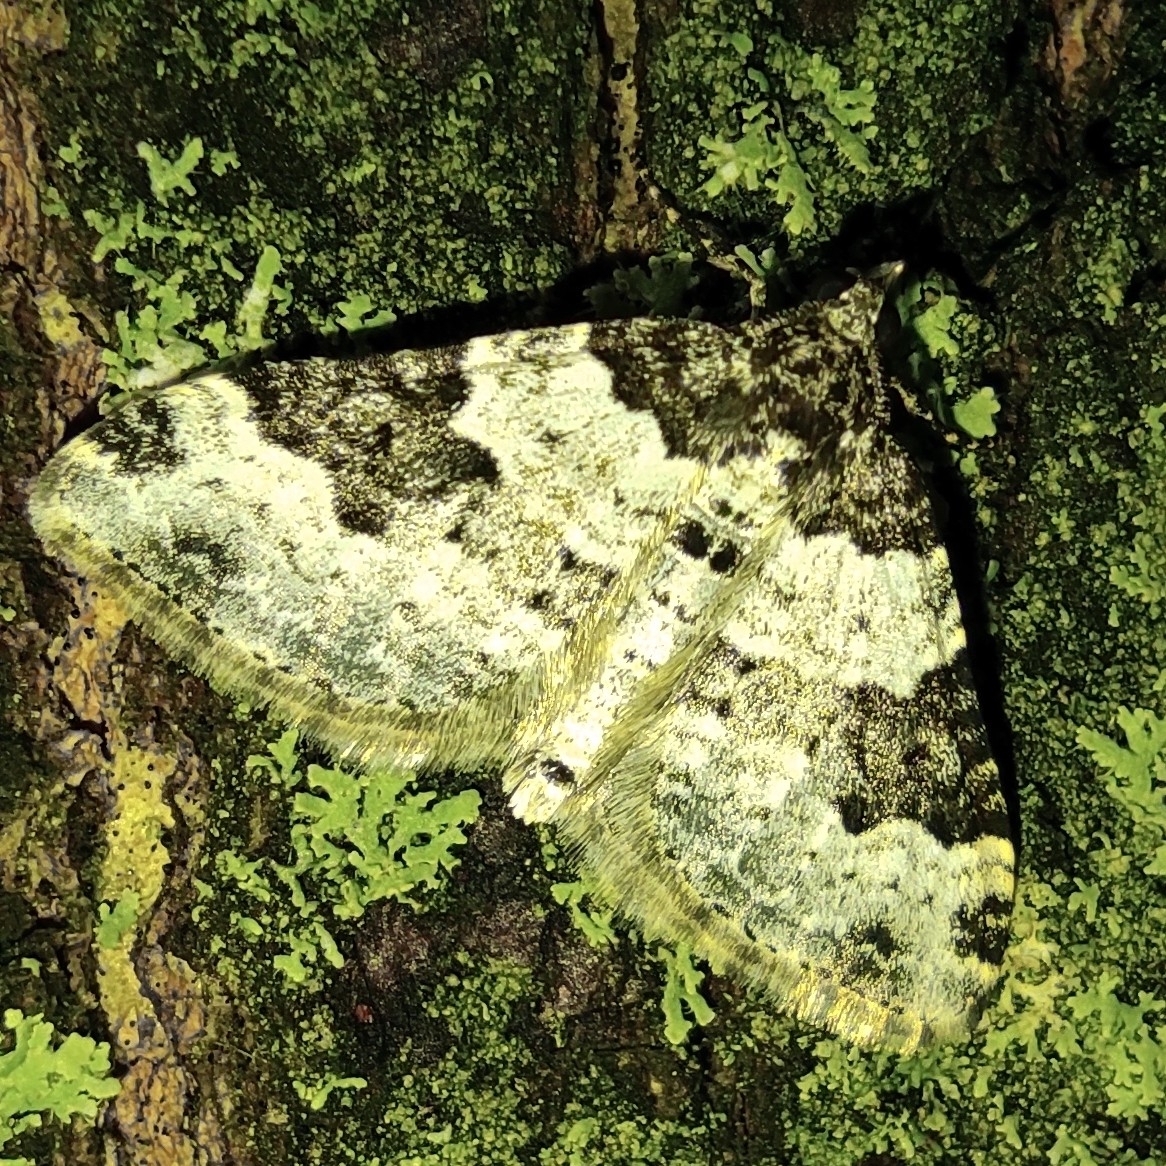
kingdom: Animalia
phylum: Arthropoda
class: Insecta
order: Lepidoptera
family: Geometridae
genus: Xanthorhoe
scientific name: Xanthorhoe fluctuata
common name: Garden carpet
